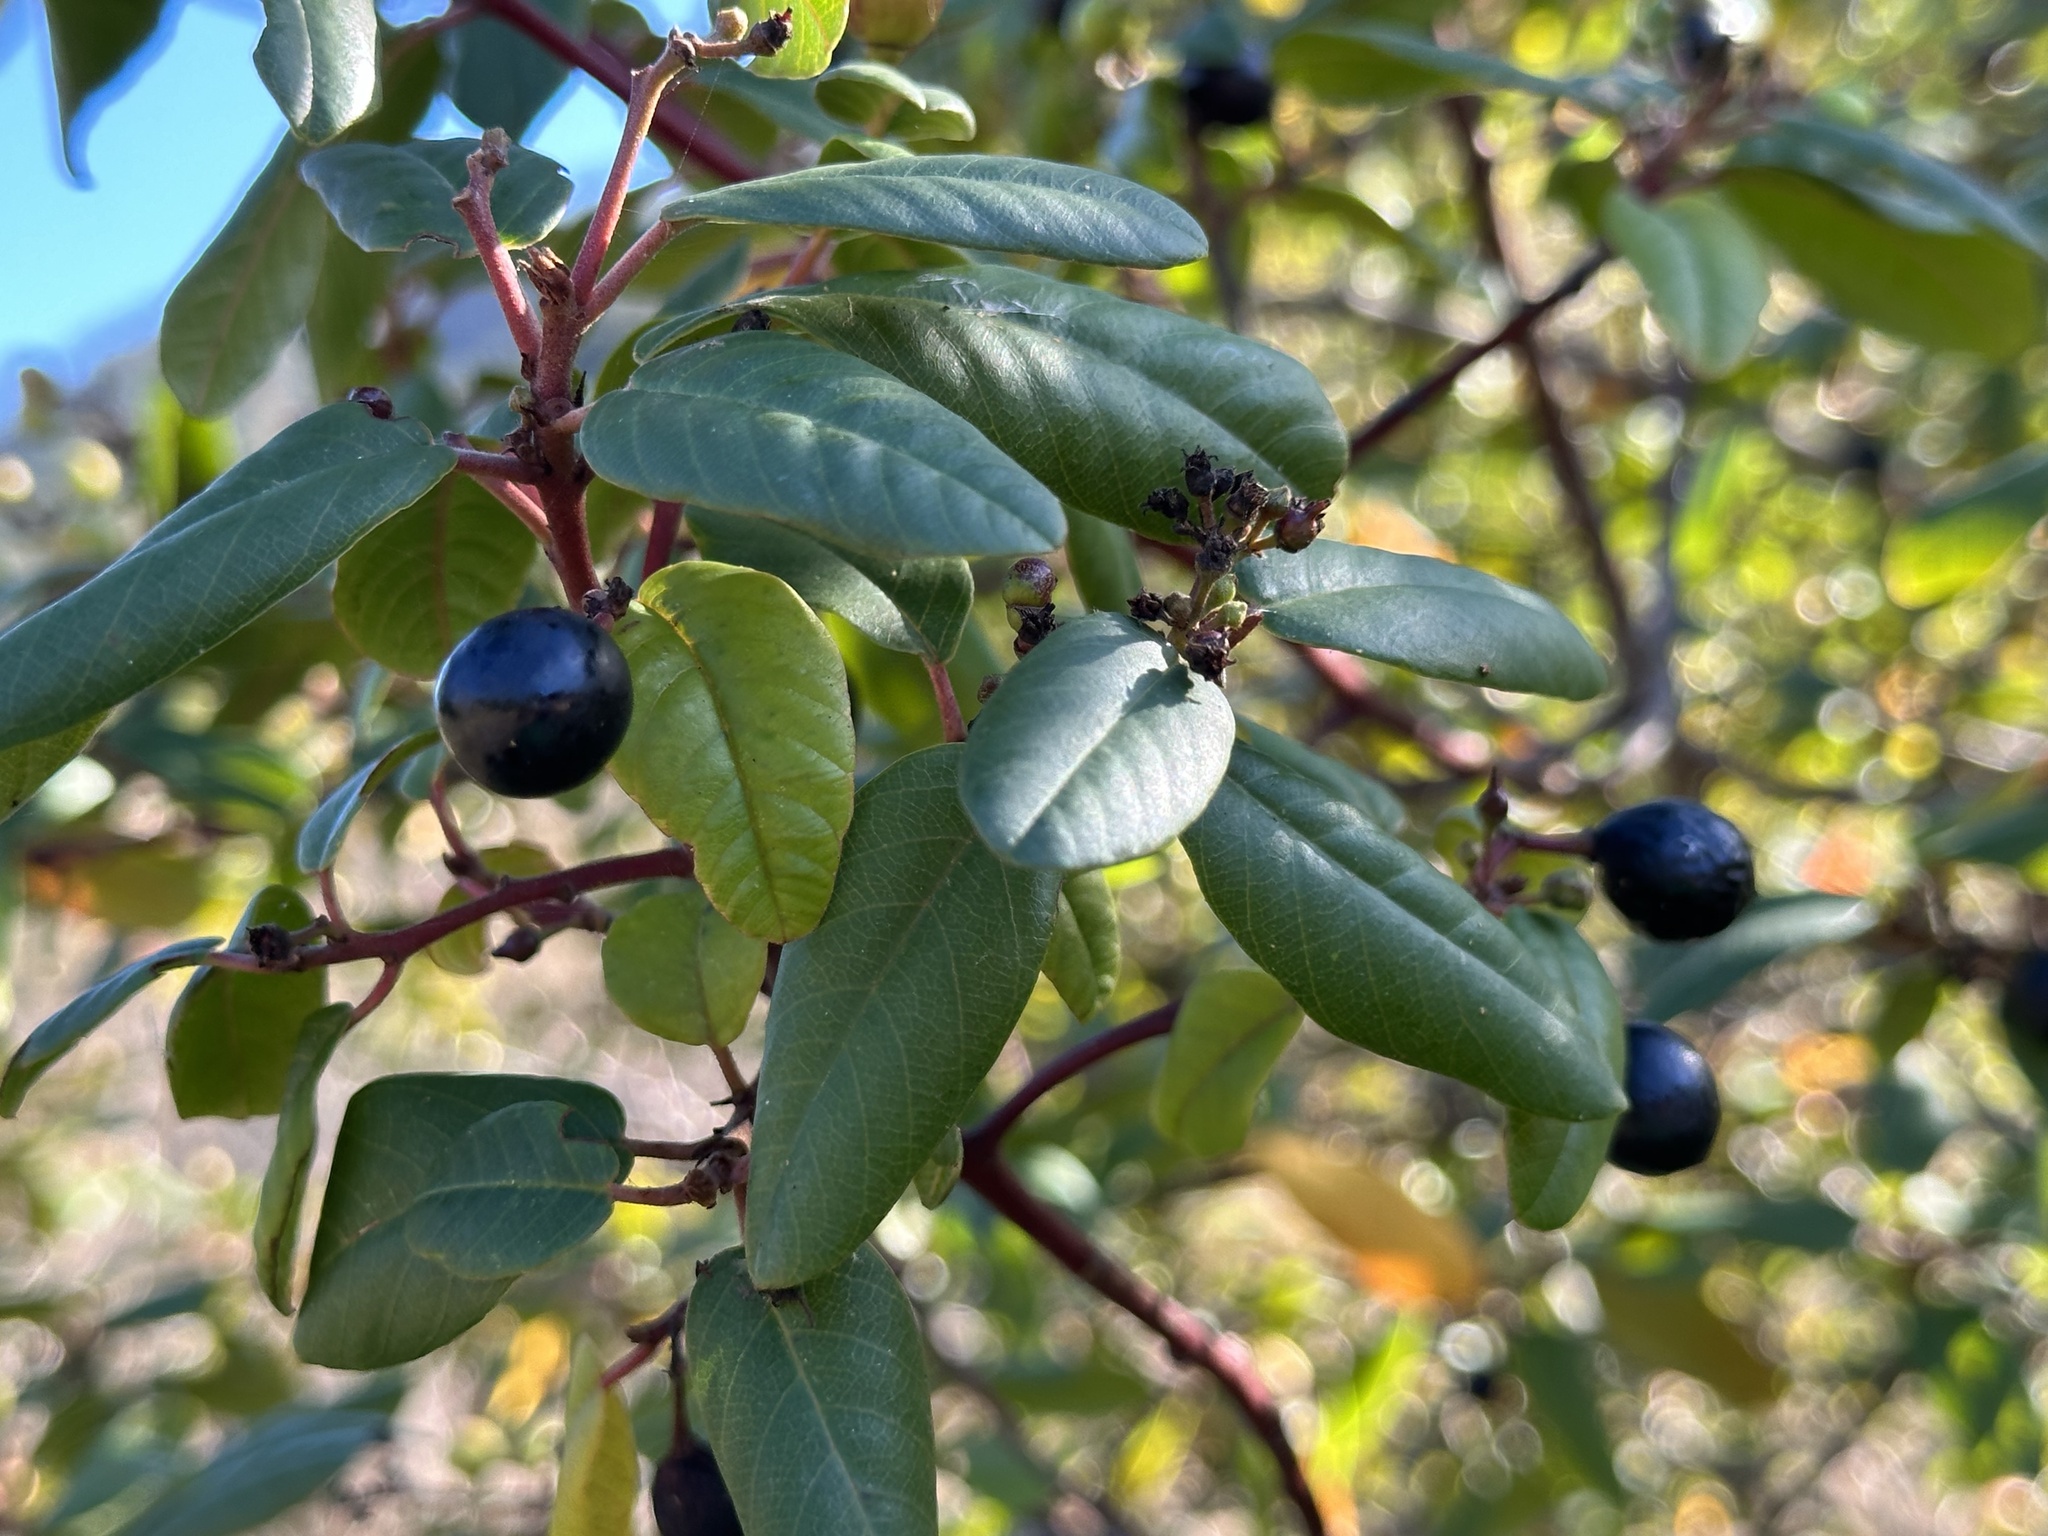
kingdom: Plantae
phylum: Tracheophyta
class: Magnoliopsida
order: Rosales
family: Rhamnaceae
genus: Frangula
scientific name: Frangula californica
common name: California buckthorn
